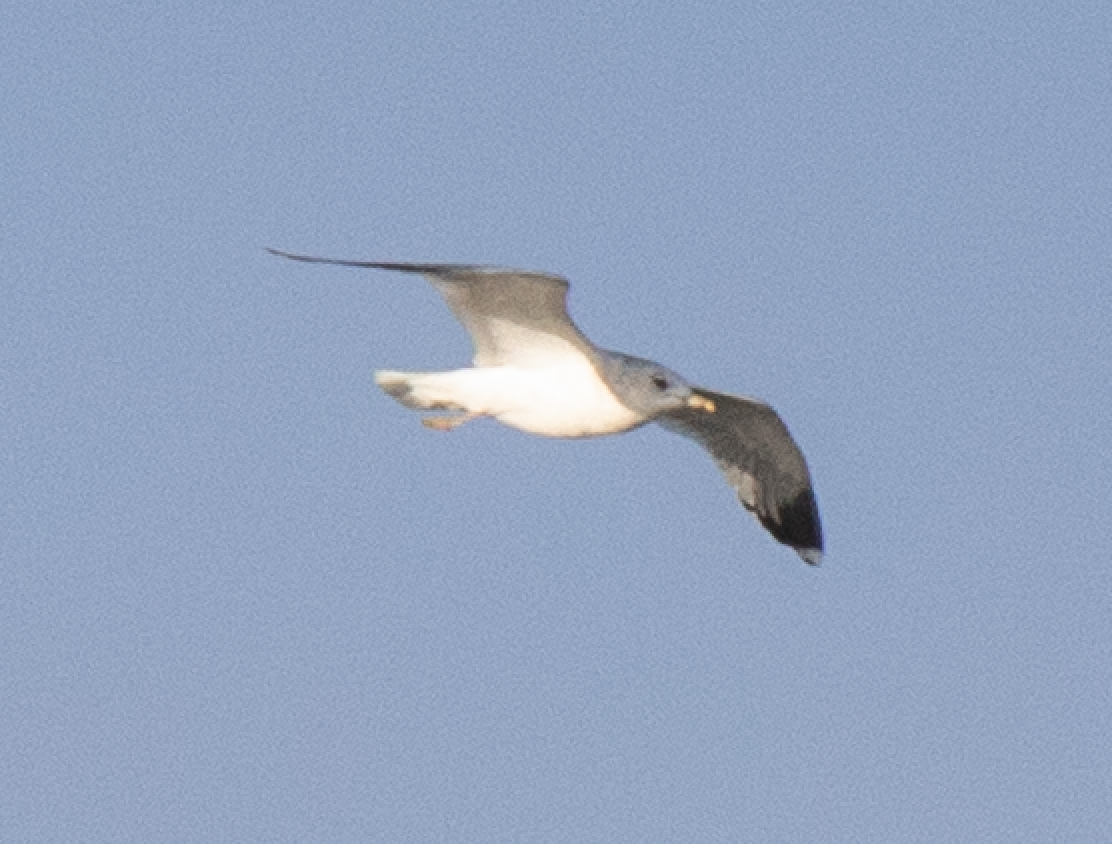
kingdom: Animalia
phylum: Chordata
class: Aves
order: Charadriiformes
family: Laridae
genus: Larus
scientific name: Larus canus
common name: Mew gull
